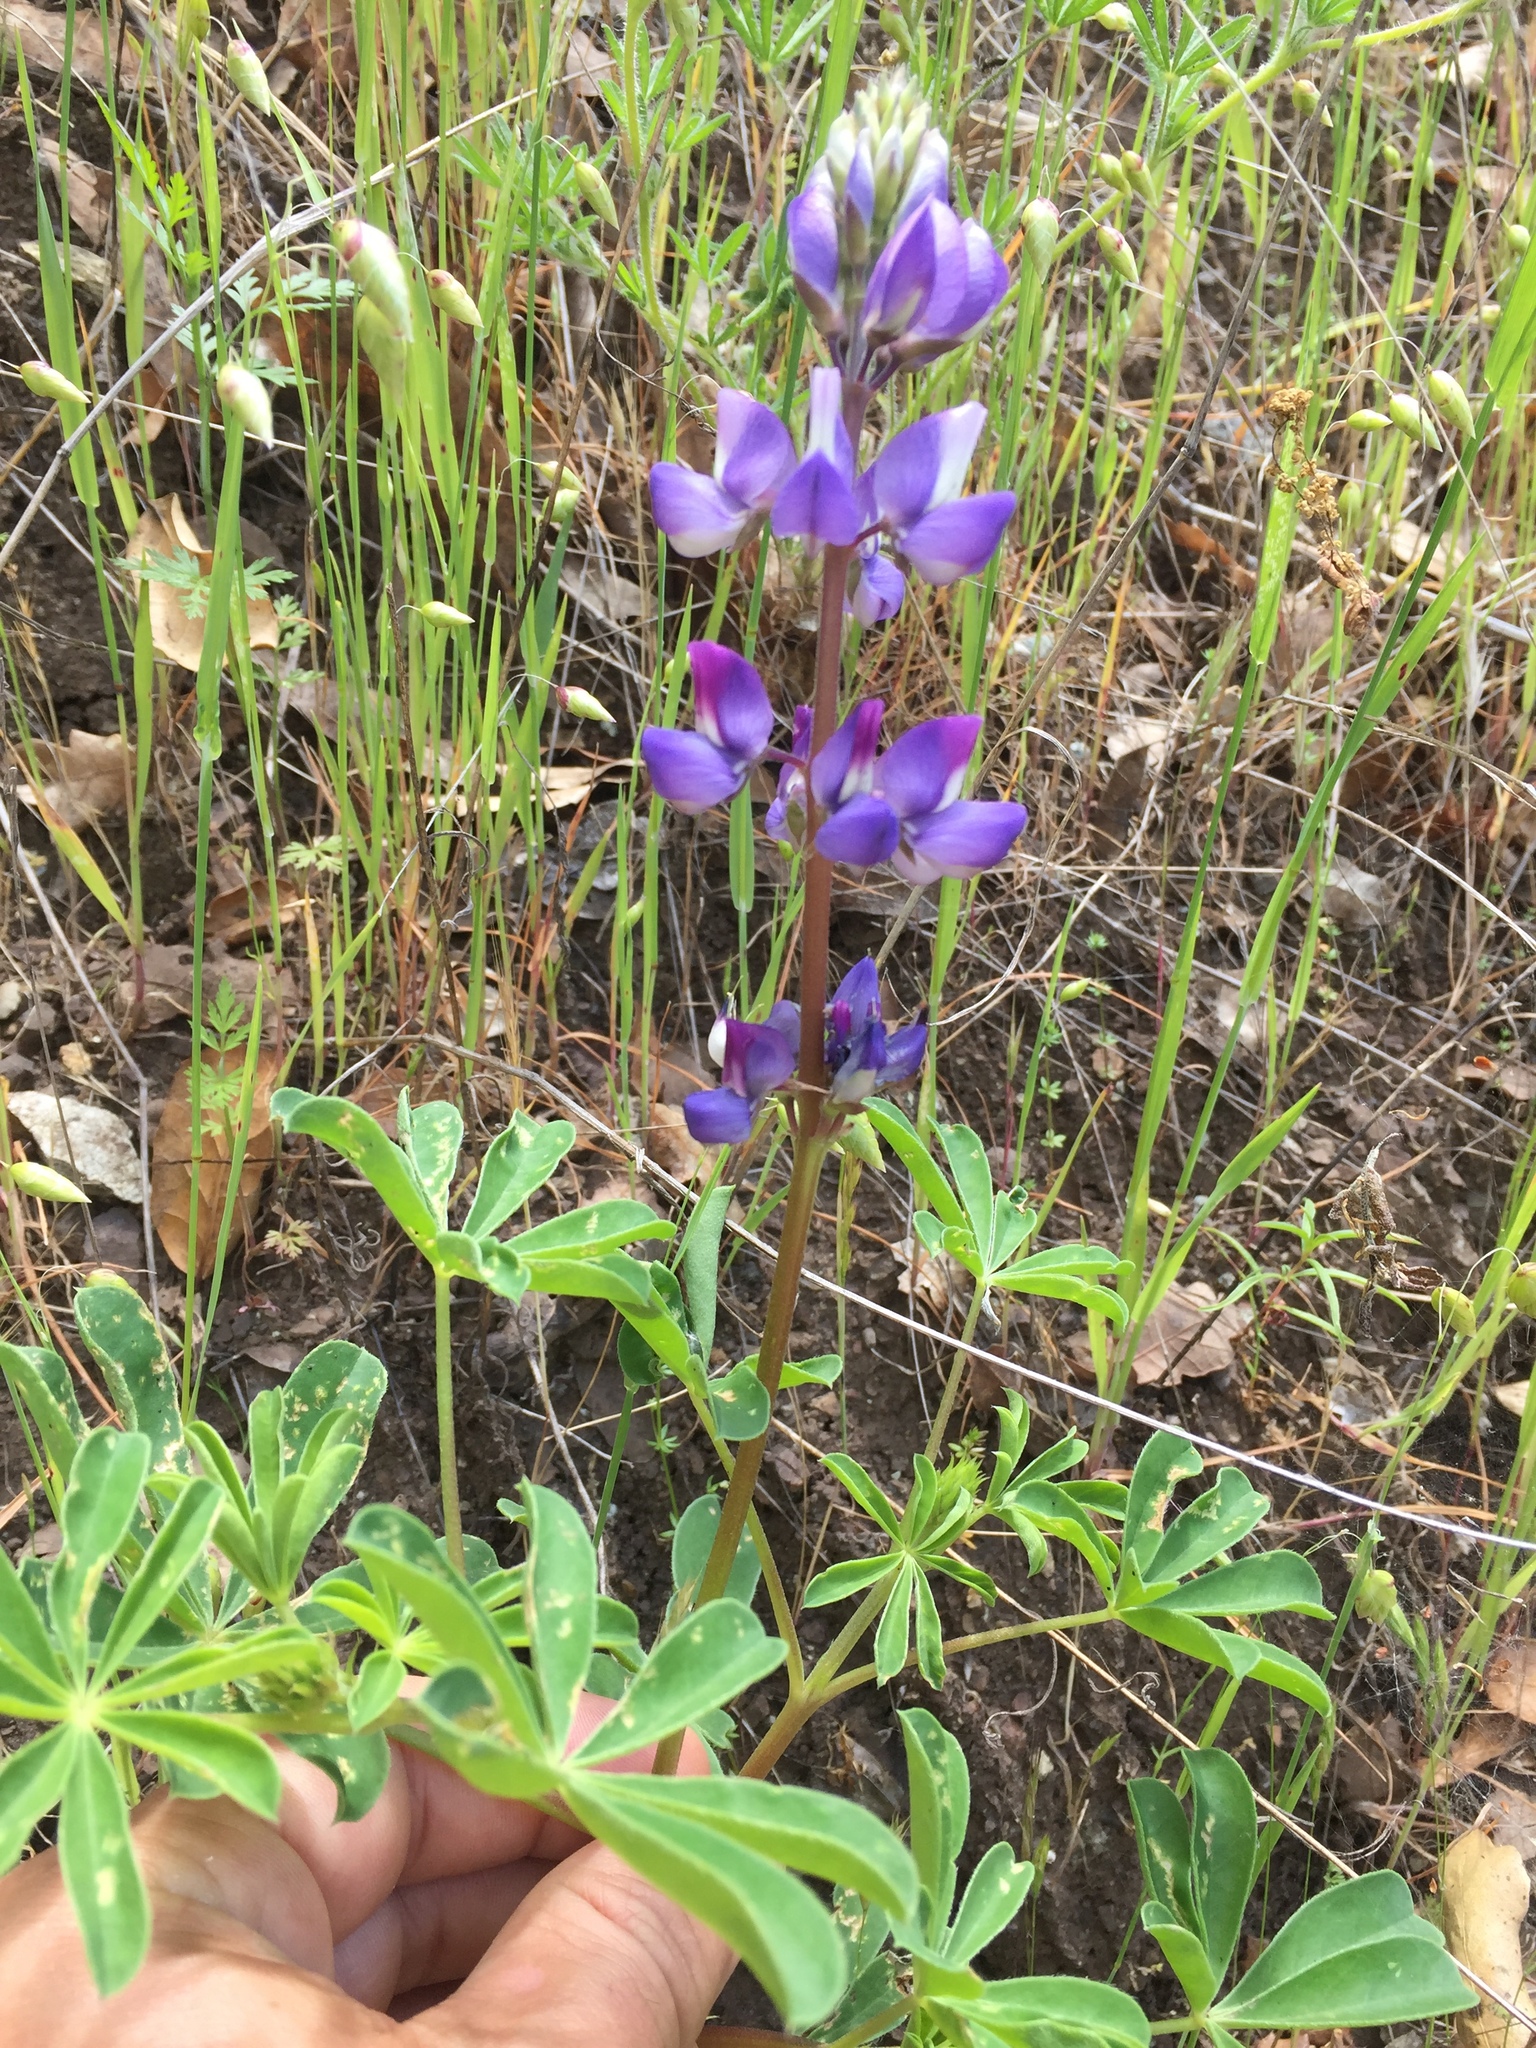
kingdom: Plantae
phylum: Tracheophyta
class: Magnoliopsida
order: Fabales
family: Fabaceae
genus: Lupinus
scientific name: Lupinus succulentus
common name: Arroyo lupine
